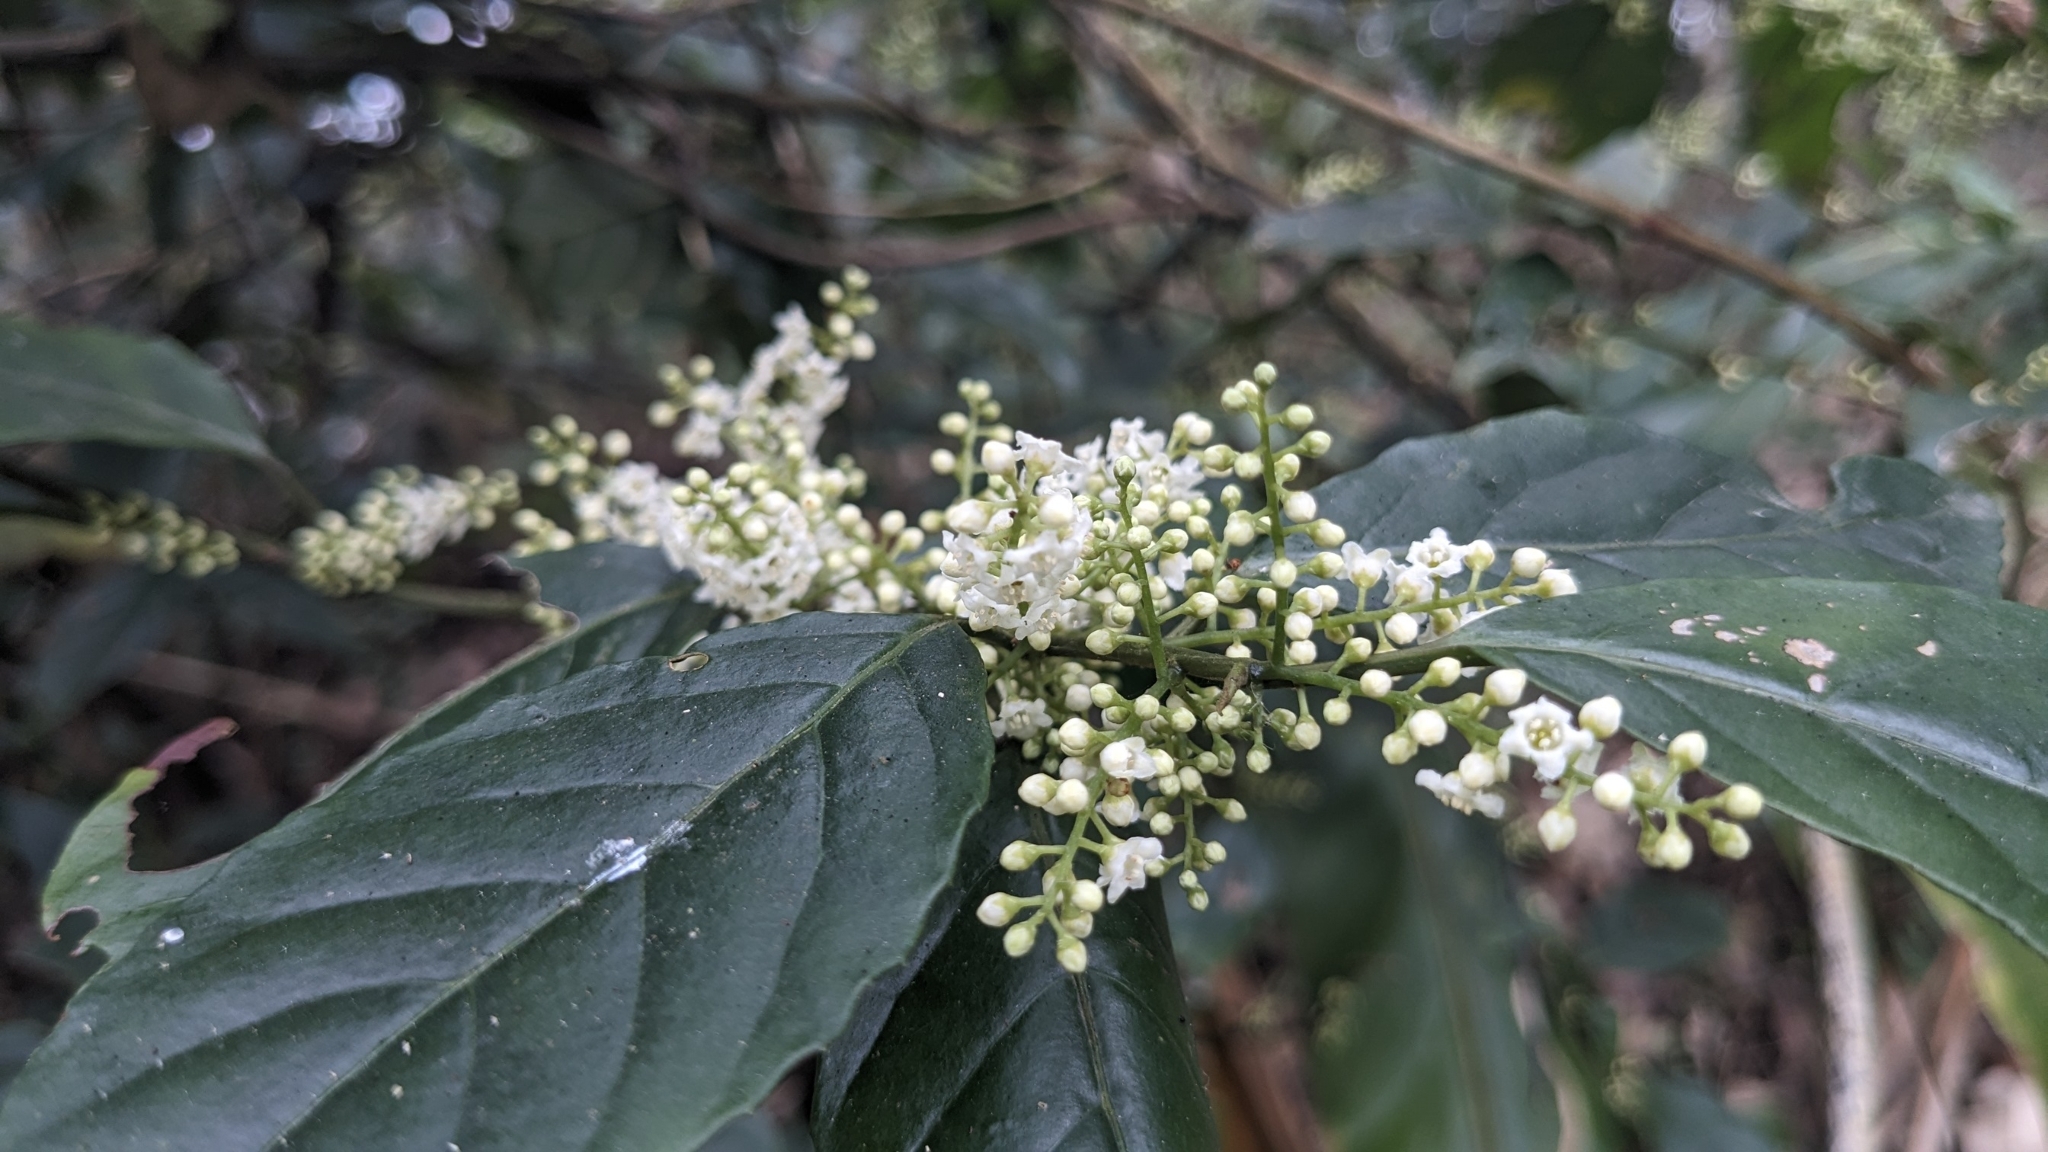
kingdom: Plantae
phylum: Tracheophyta
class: Magnoliopsida
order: Ericales
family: Primulaceae
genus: Maesa
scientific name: Maesa perlaria
